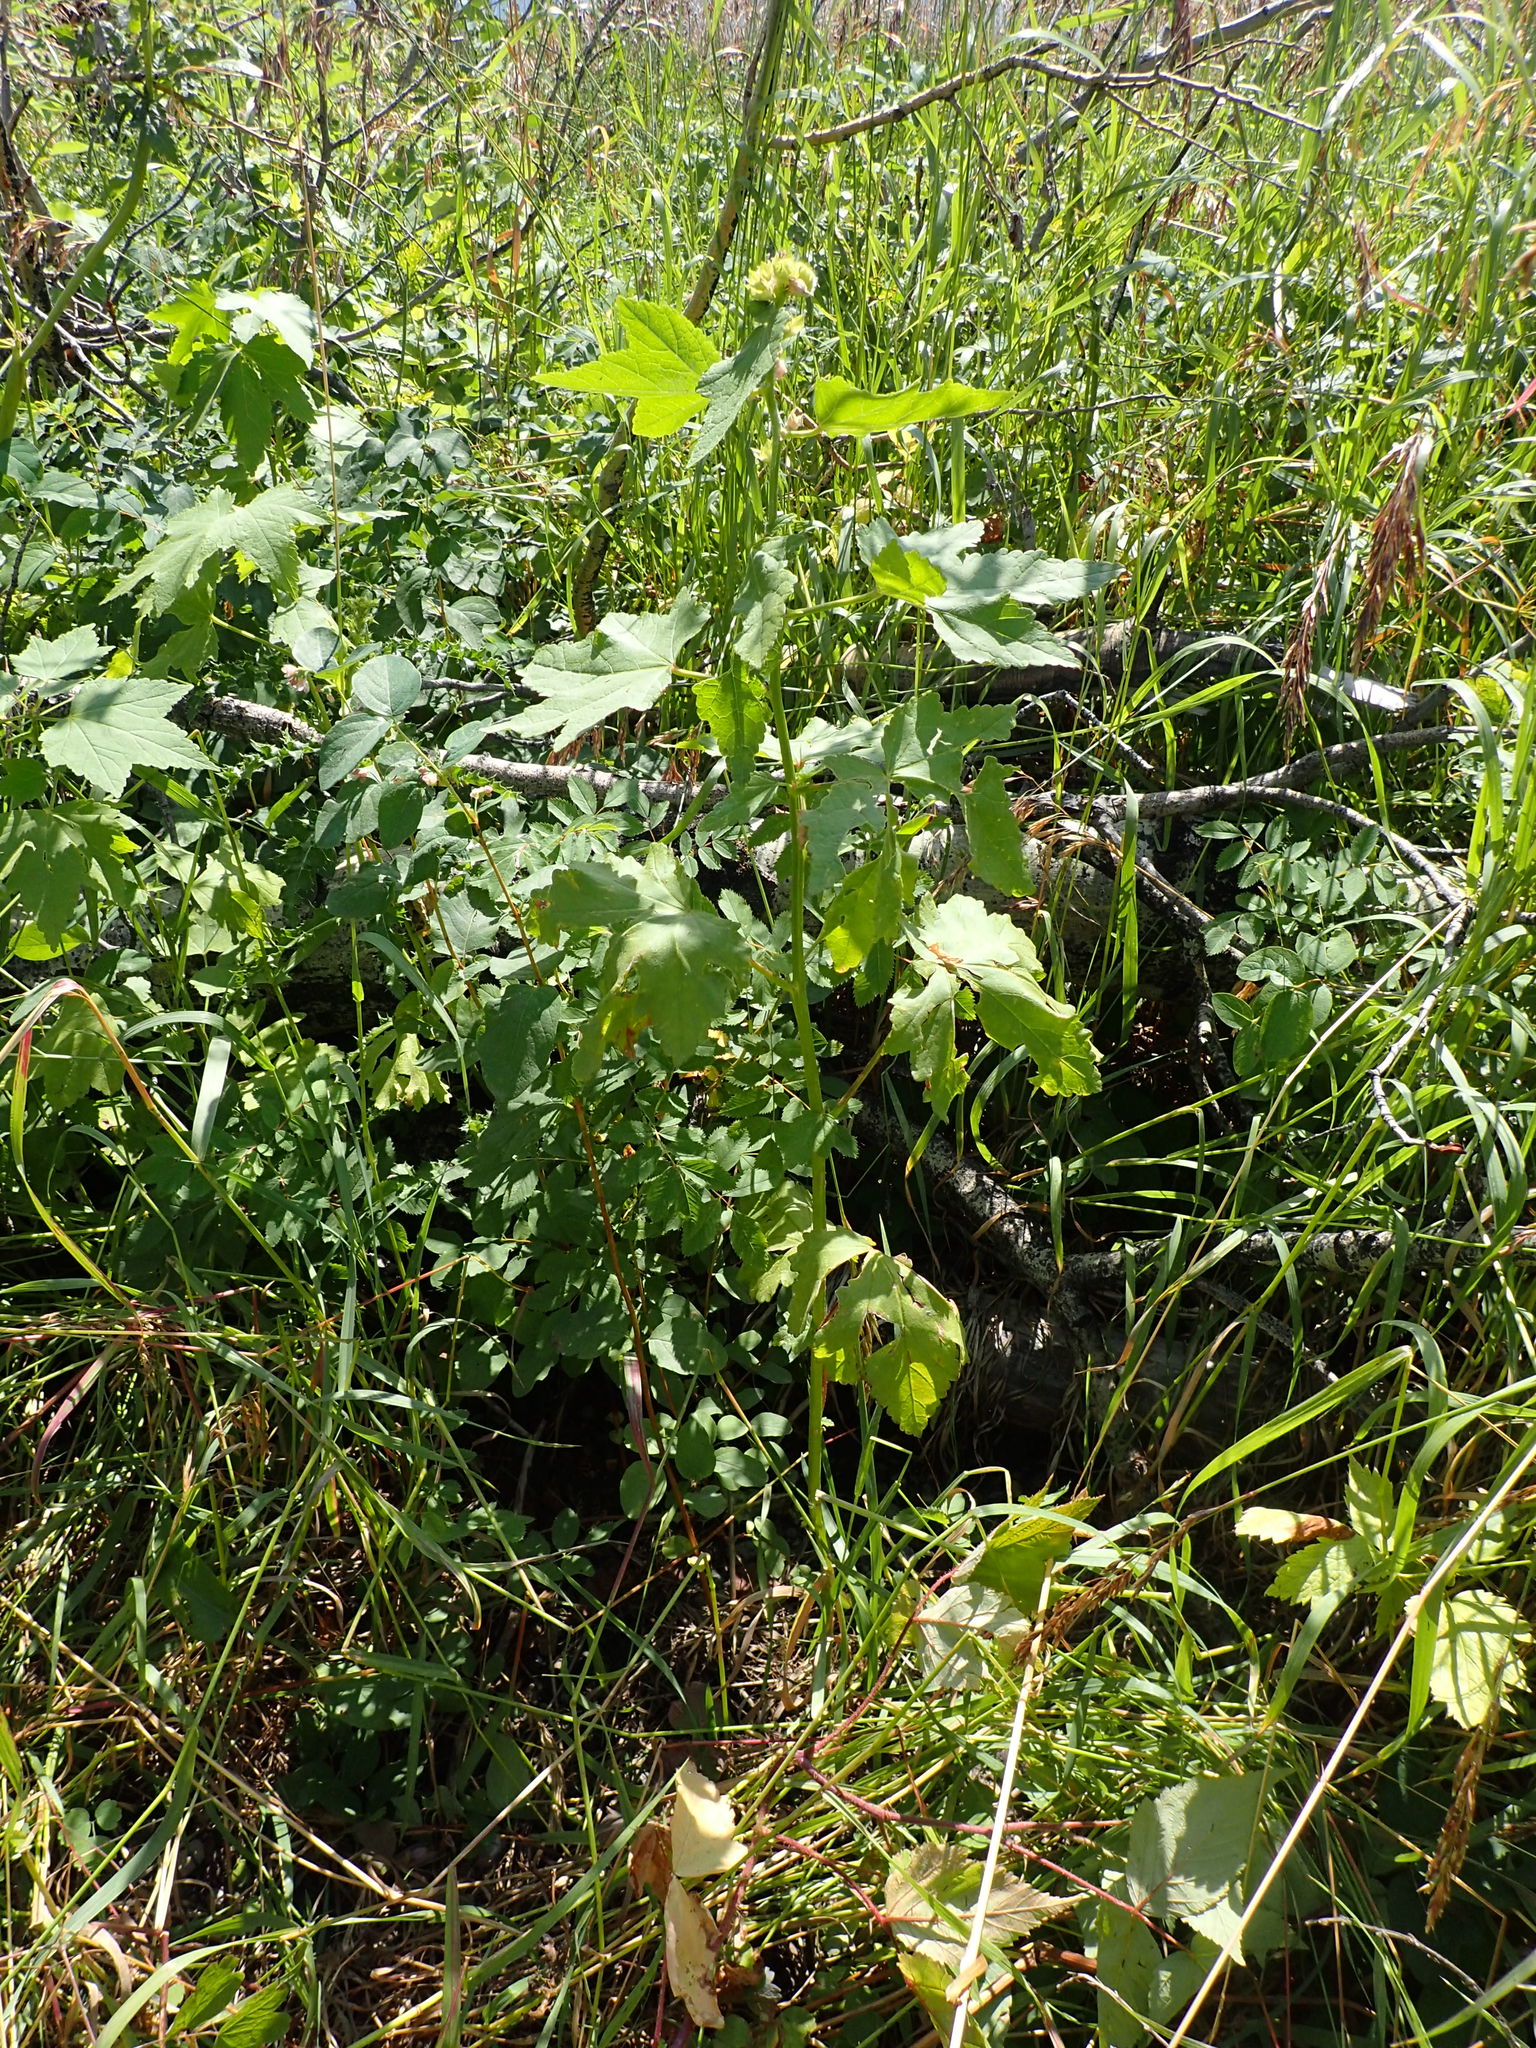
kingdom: Plantae
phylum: Tracheophyta
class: Magnoliopsida
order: Malvales
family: Malvaceae
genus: Iliamna
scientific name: Iliamna rivularis
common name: Wild hollyhock
